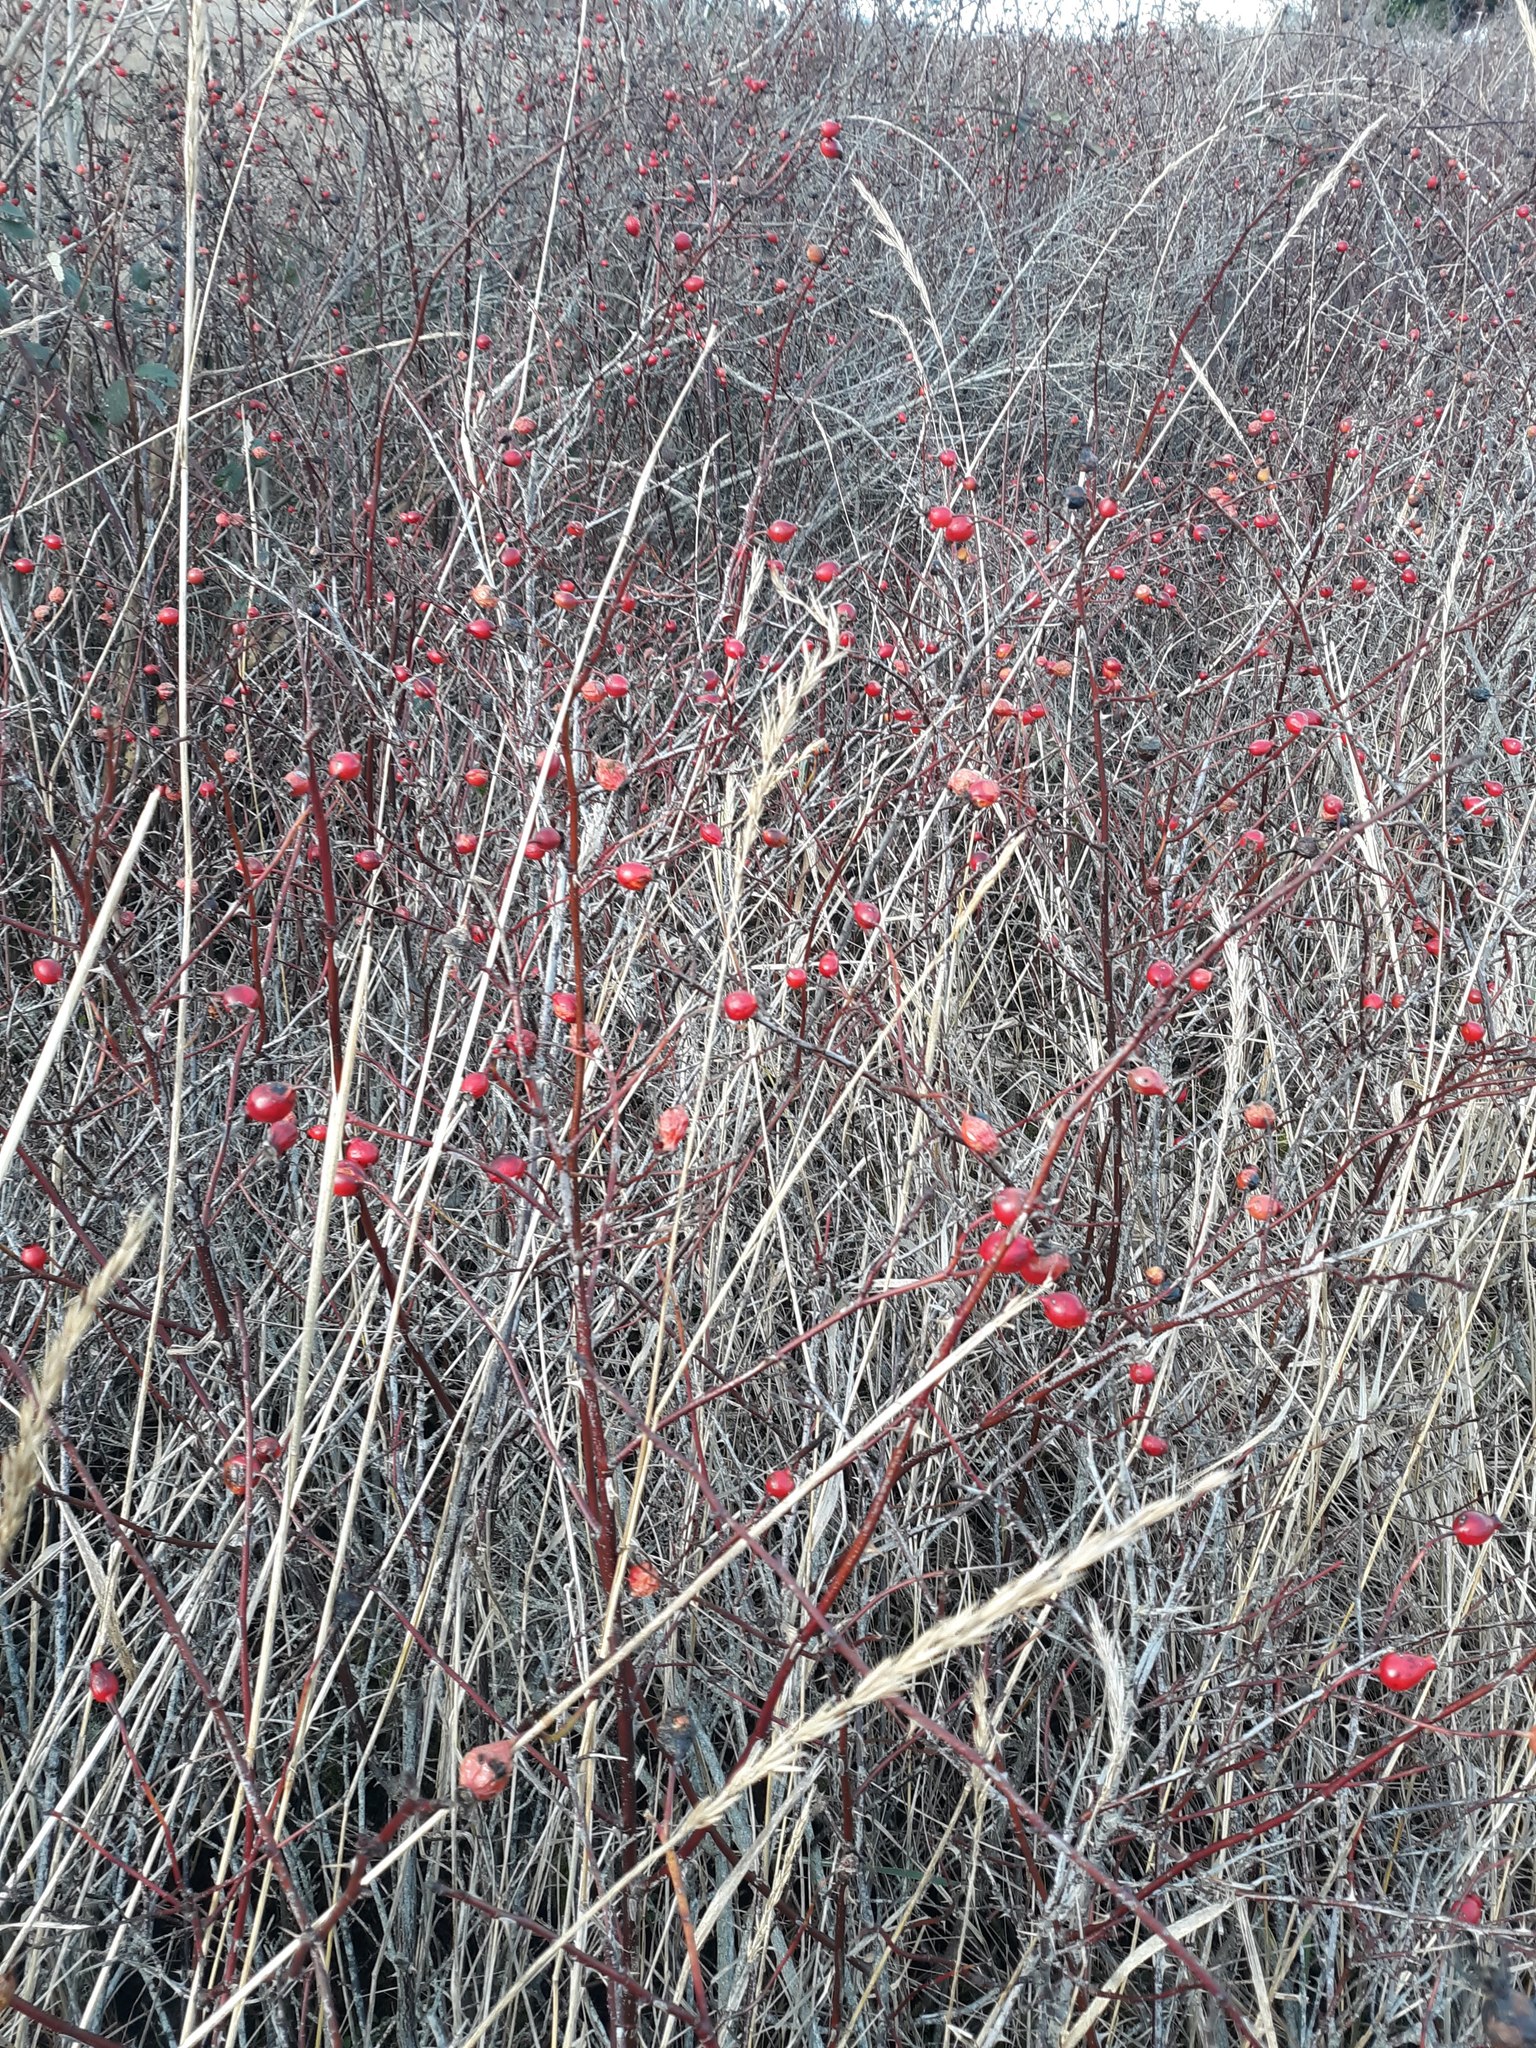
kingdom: Plantae
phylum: Tracheophyta
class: Magnoliopsida
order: Rosales
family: Rosaceae
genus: Rosa
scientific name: Rosa nutkana
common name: Nootka rose
